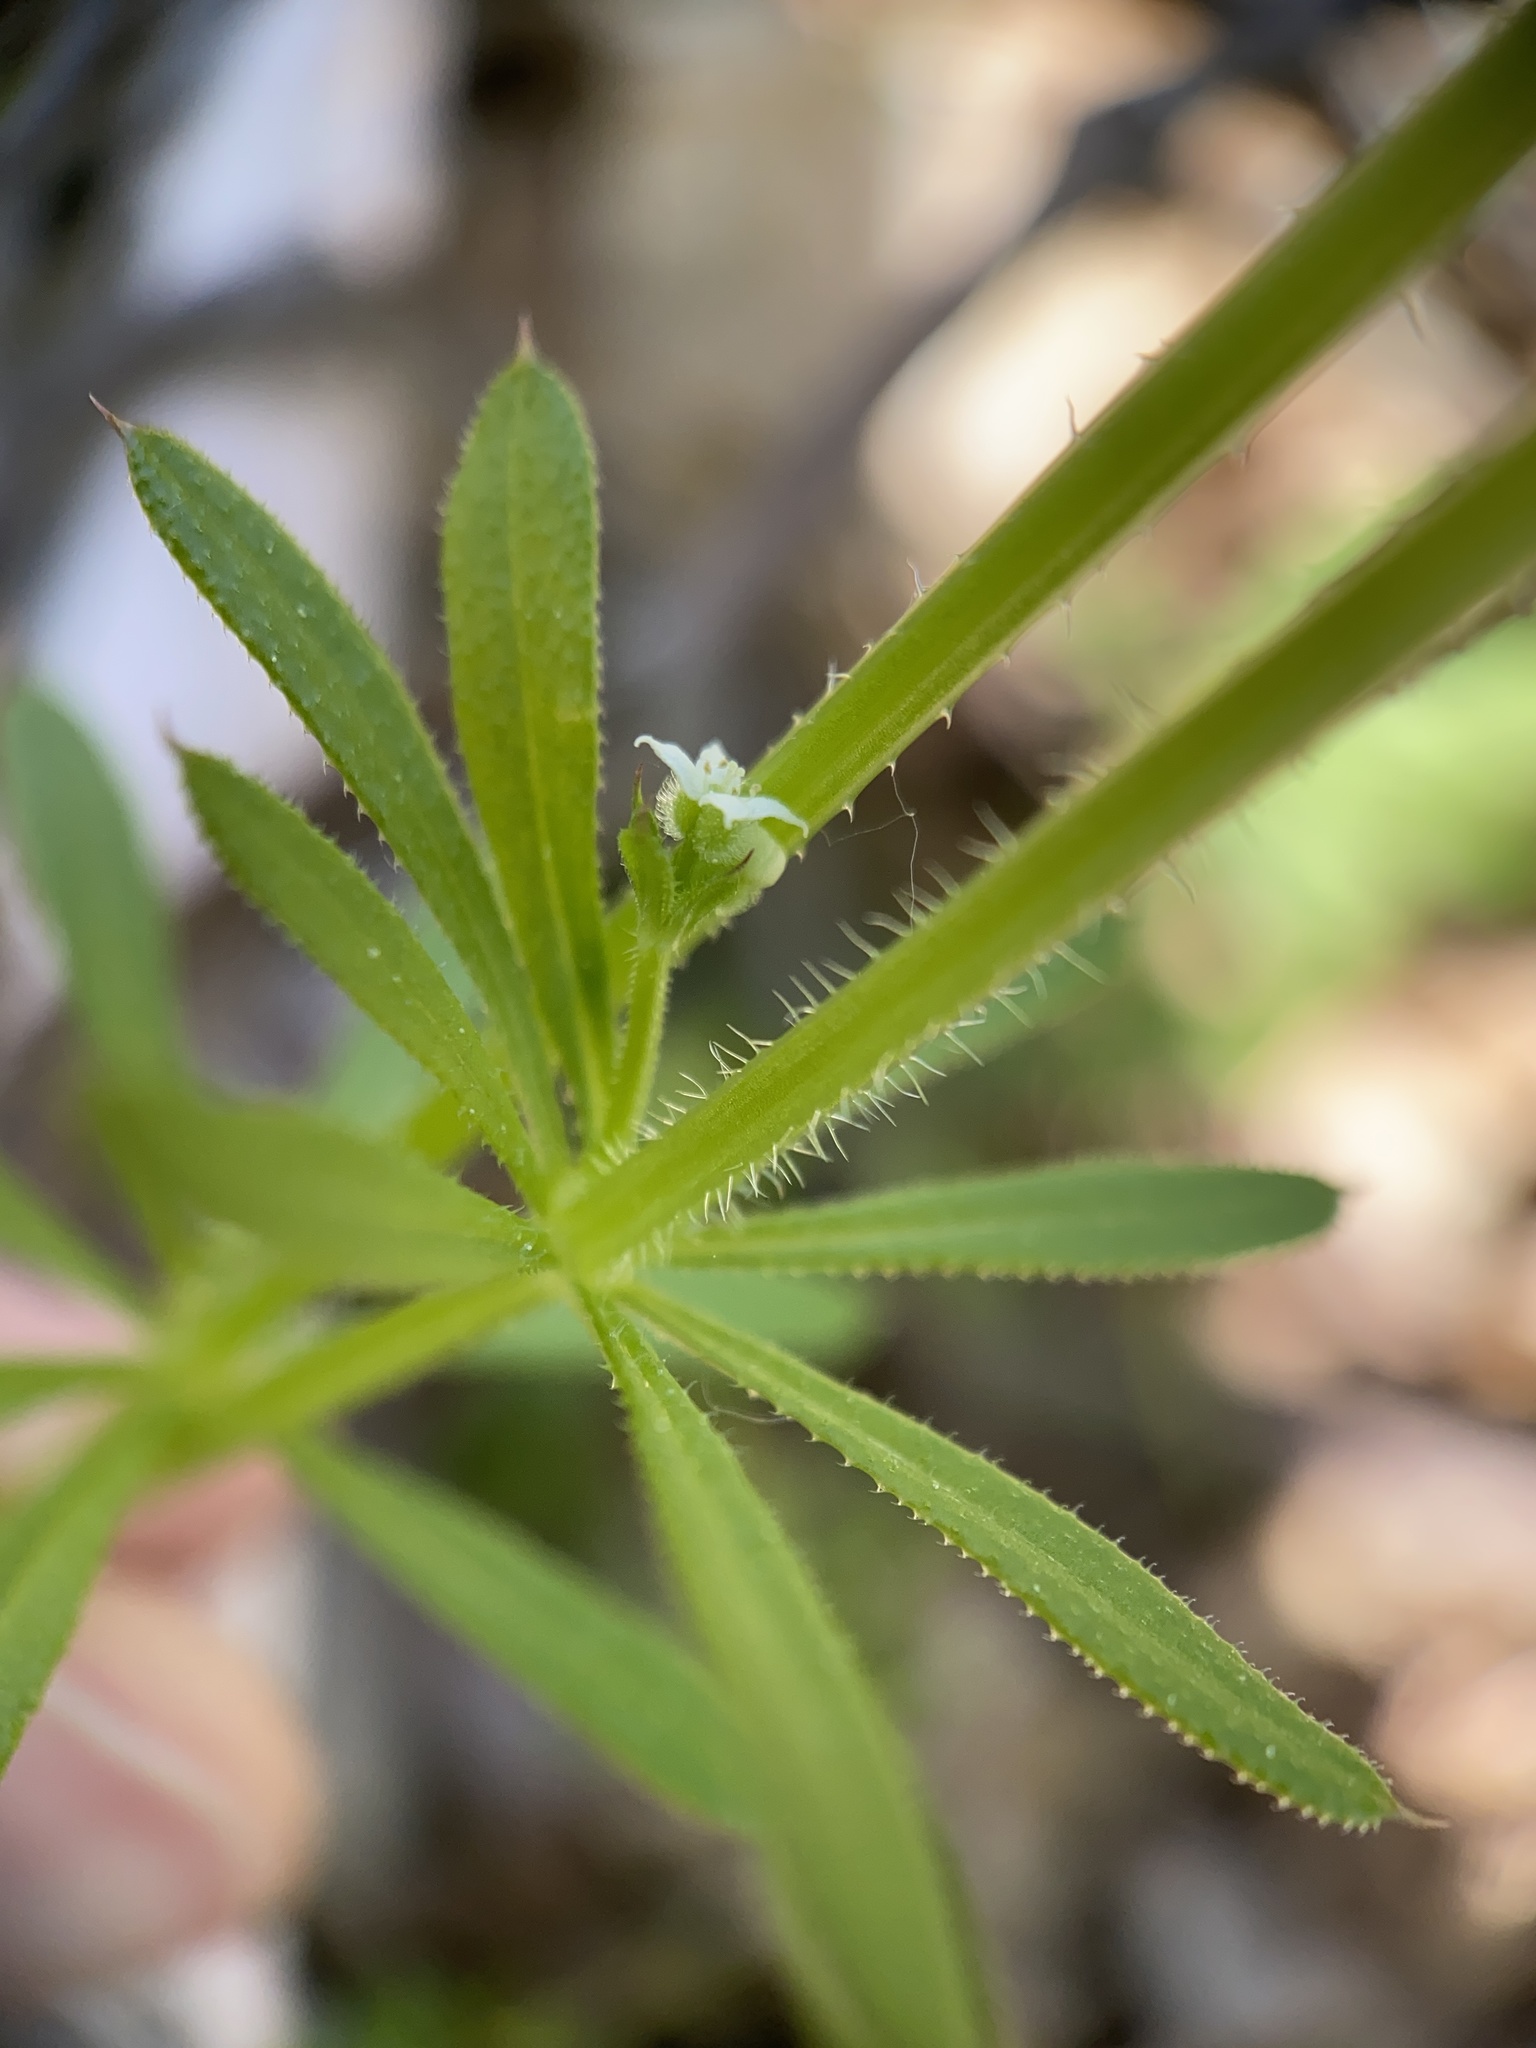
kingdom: Plantae
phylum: Tracheophyta
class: Magnoliopsida
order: Gentianales
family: Rubiaceae
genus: Galium
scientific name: Galium aparine
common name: Cleavers
